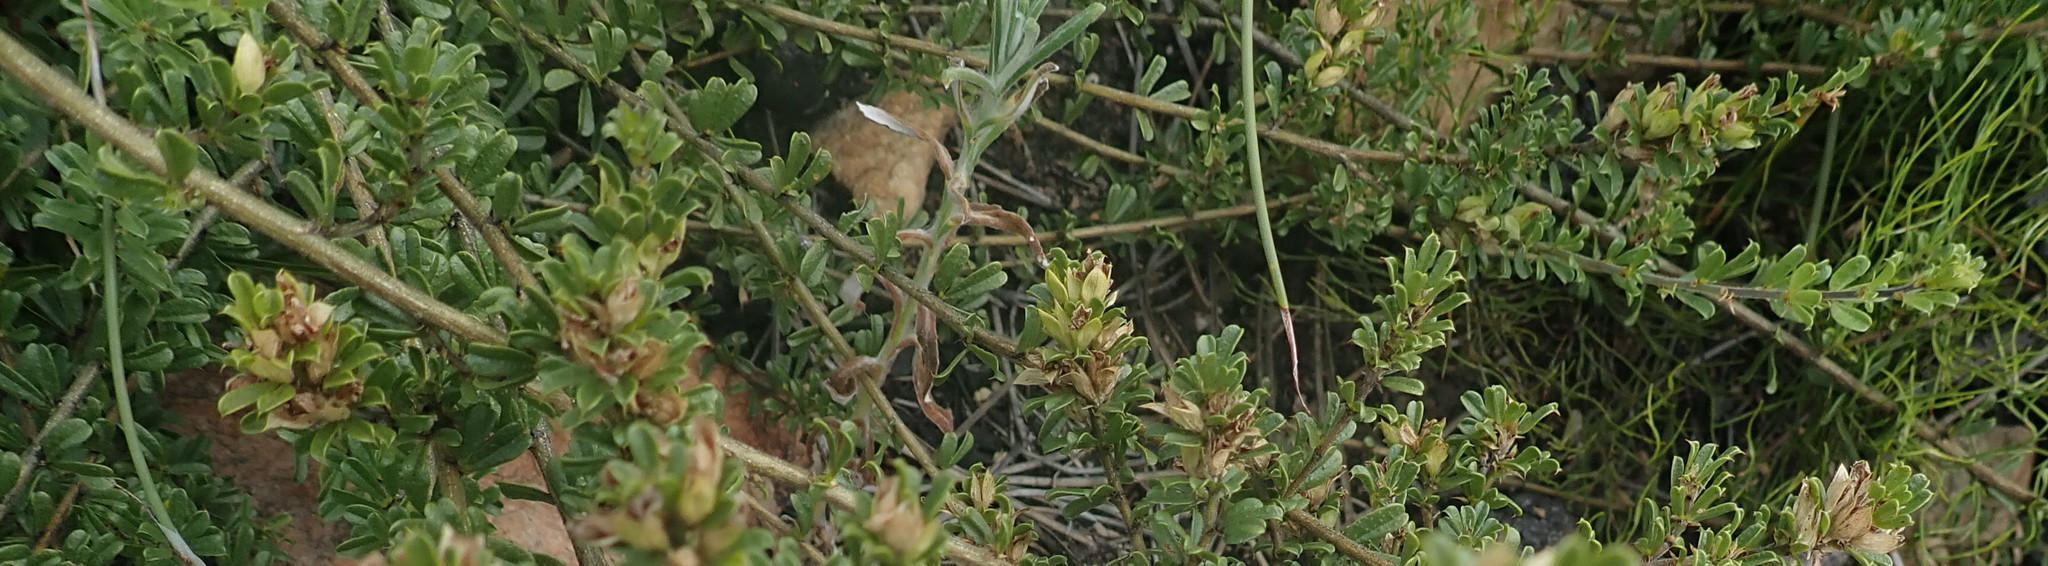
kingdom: Plantae
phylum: Tracheophyta
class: Magnoliopsida
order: Fabales
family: Fabaceae
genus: Psoralea
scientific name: Psoralea heterosepala
